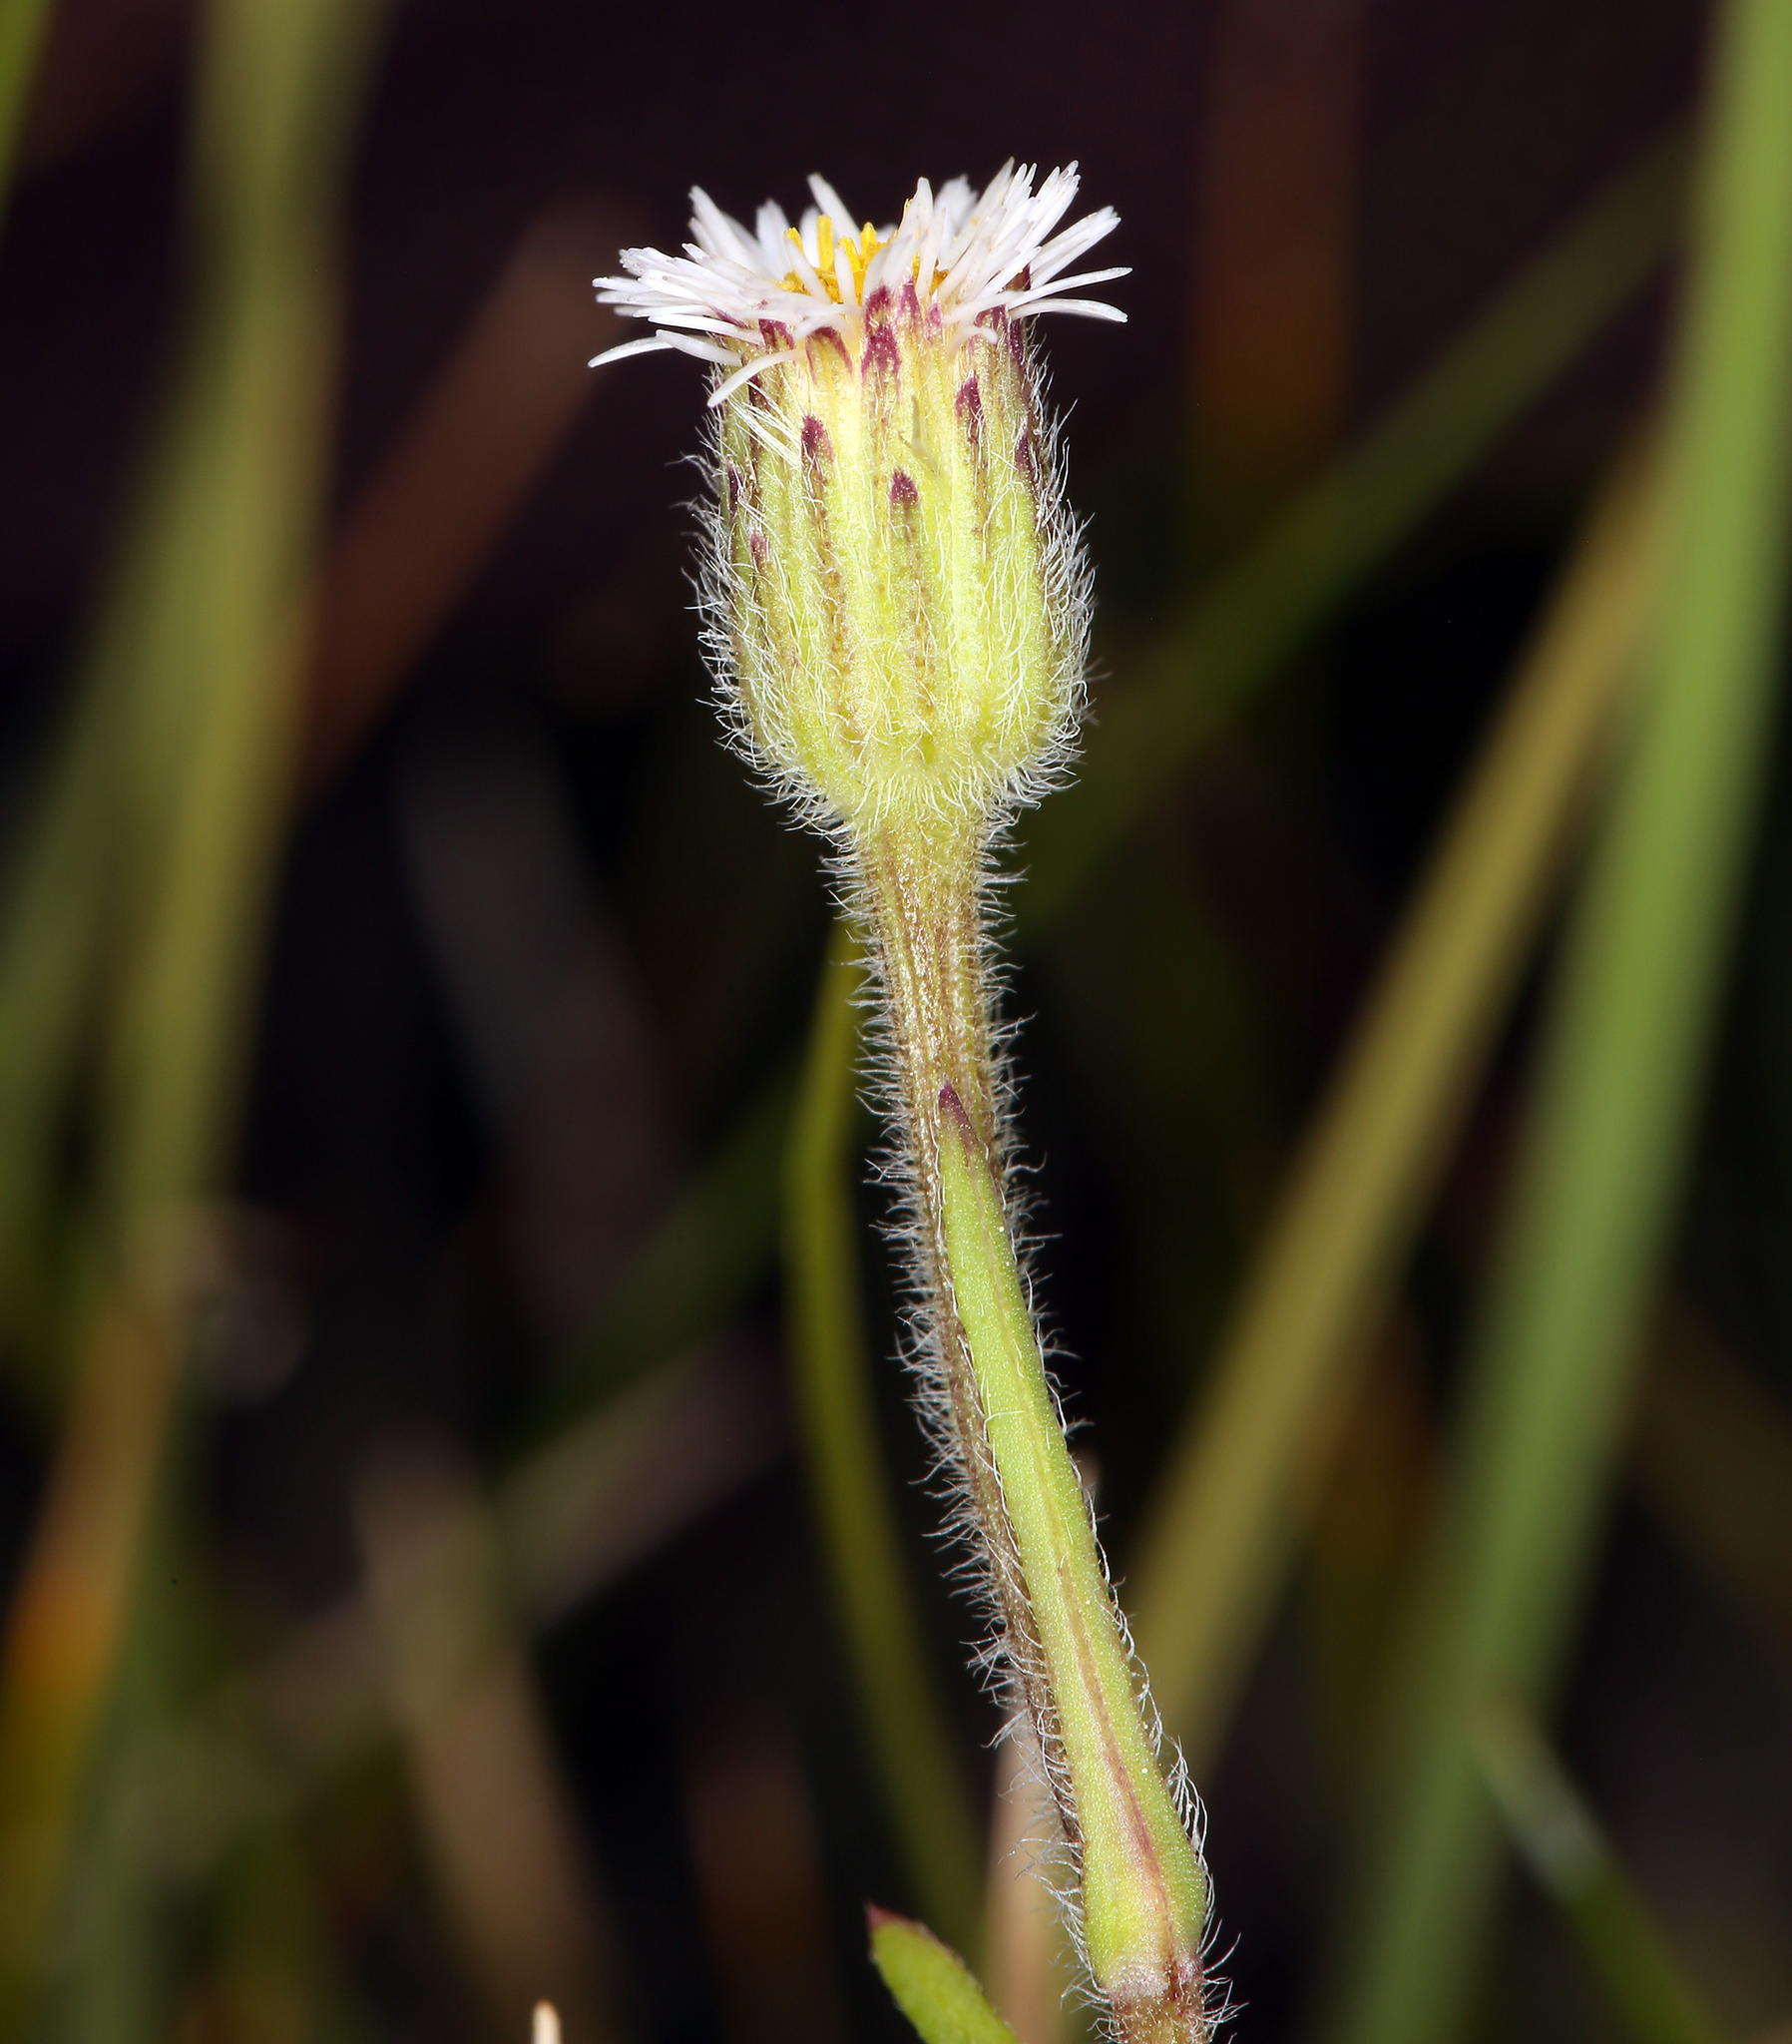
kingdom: Plantae
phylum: Tracheophyta
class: Magnoliopsida
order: Asterales
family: Asteraceae
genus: Erigeron
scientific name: Erigeron lonchophyllus
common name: Short-ray fleabane
